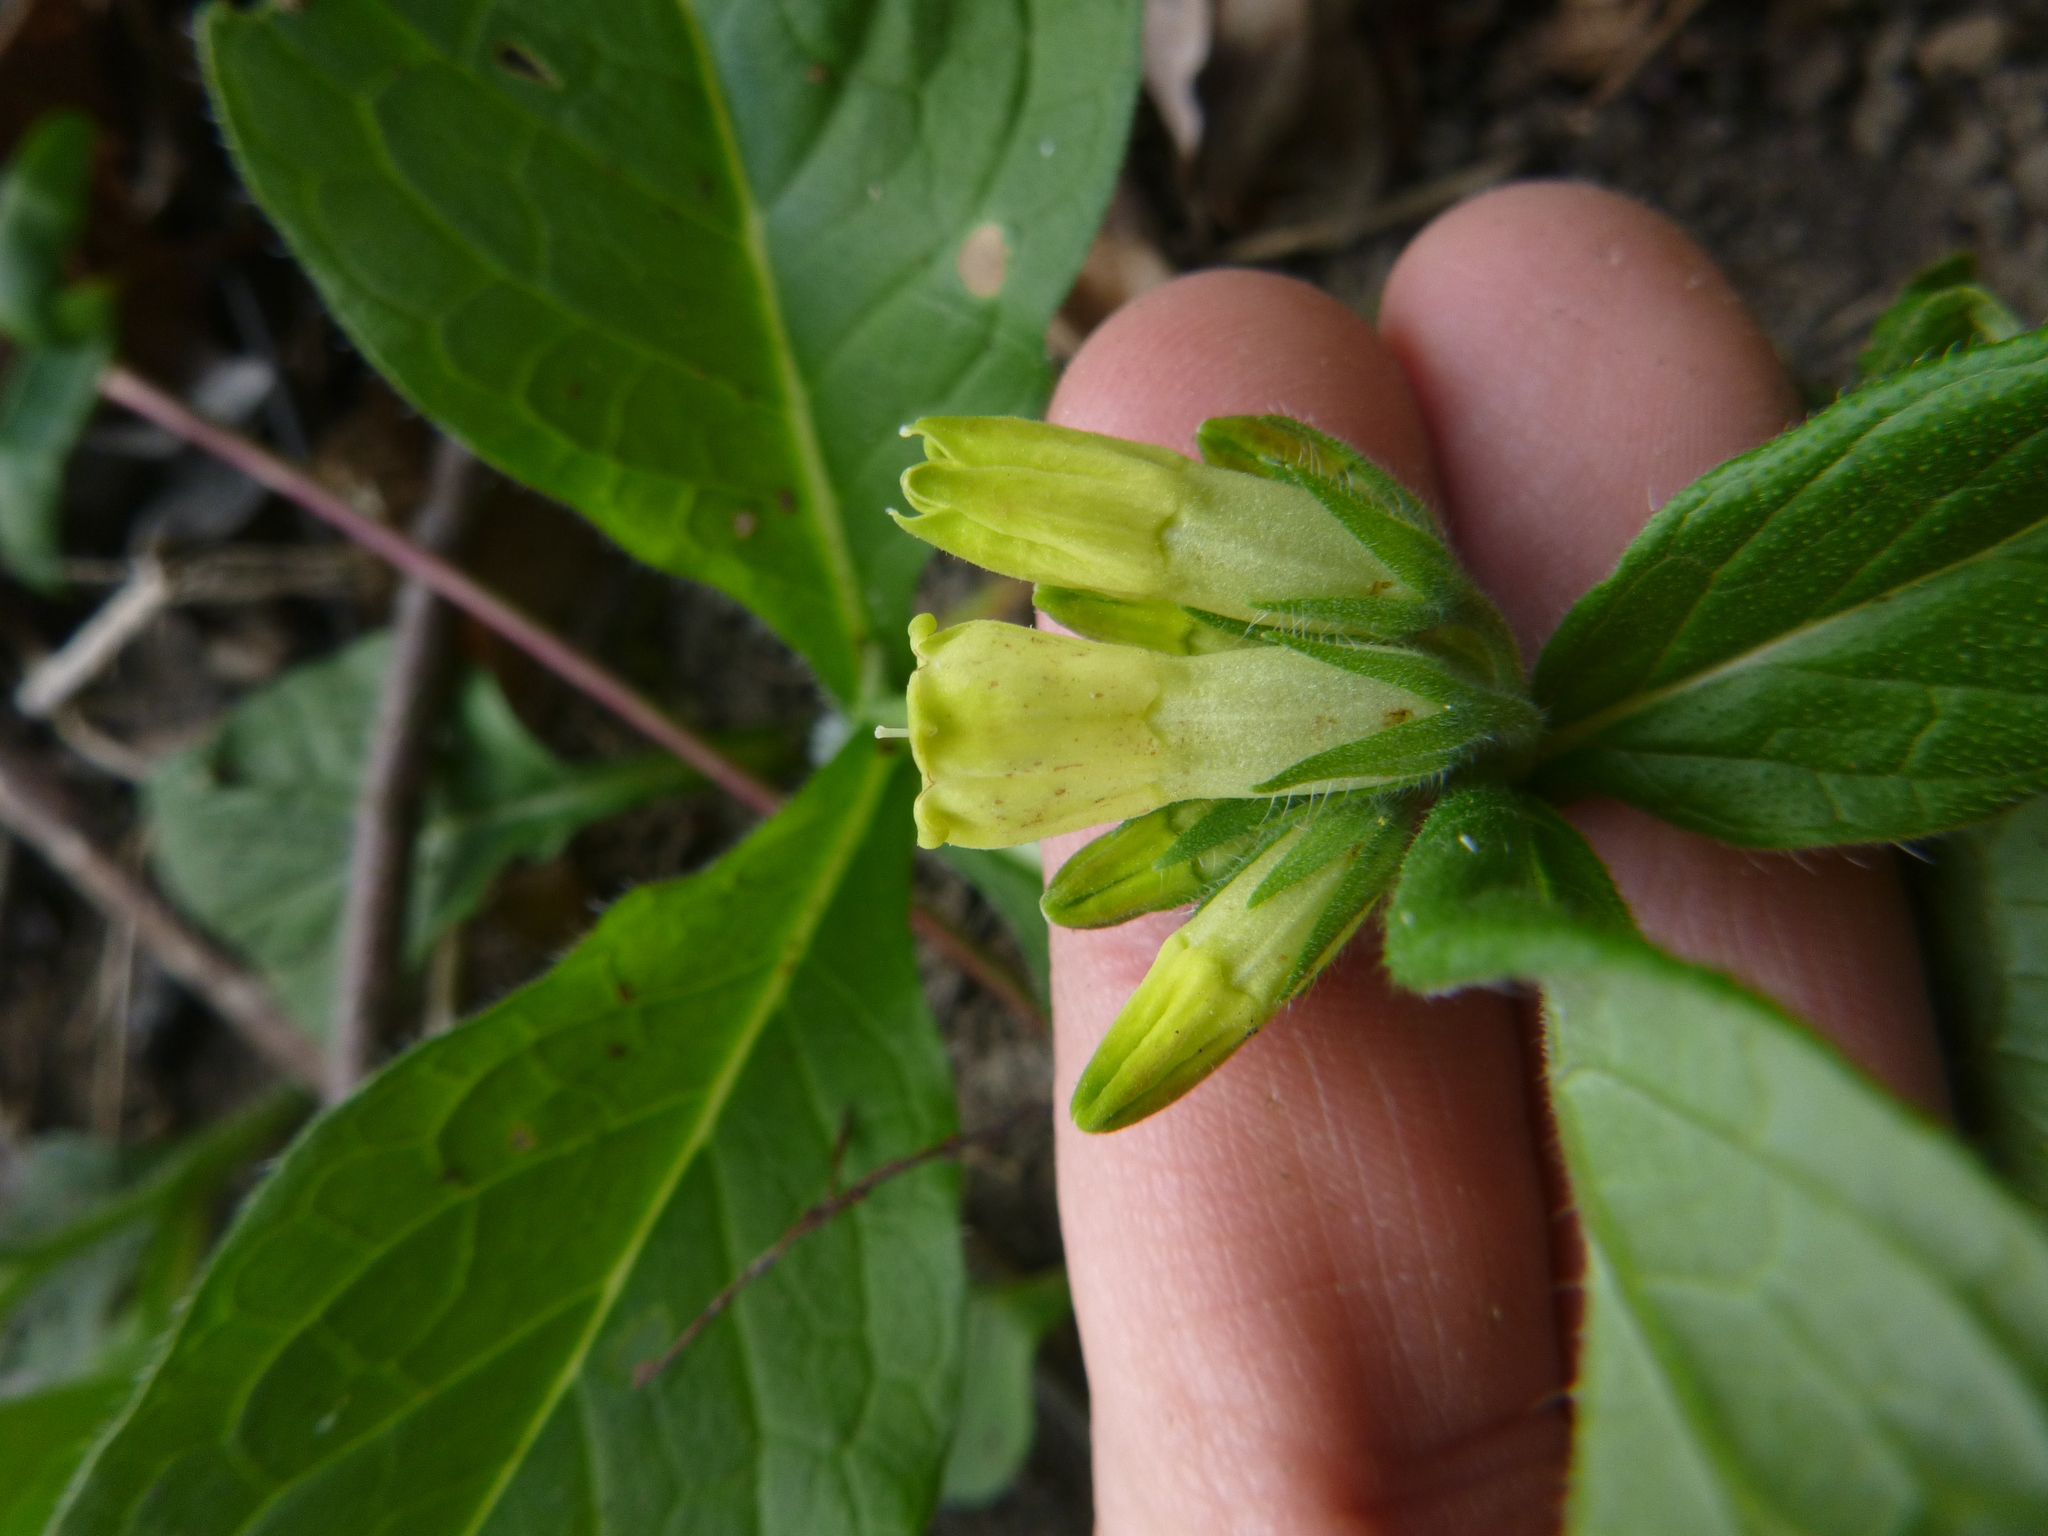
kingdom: Plantae
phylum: Tracheophyta
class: Magnoliopsida
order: Boraginales
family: Boraginaceae
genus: Symphytum
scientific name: Symphytum tuberosum
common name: Tuberous comfrey
